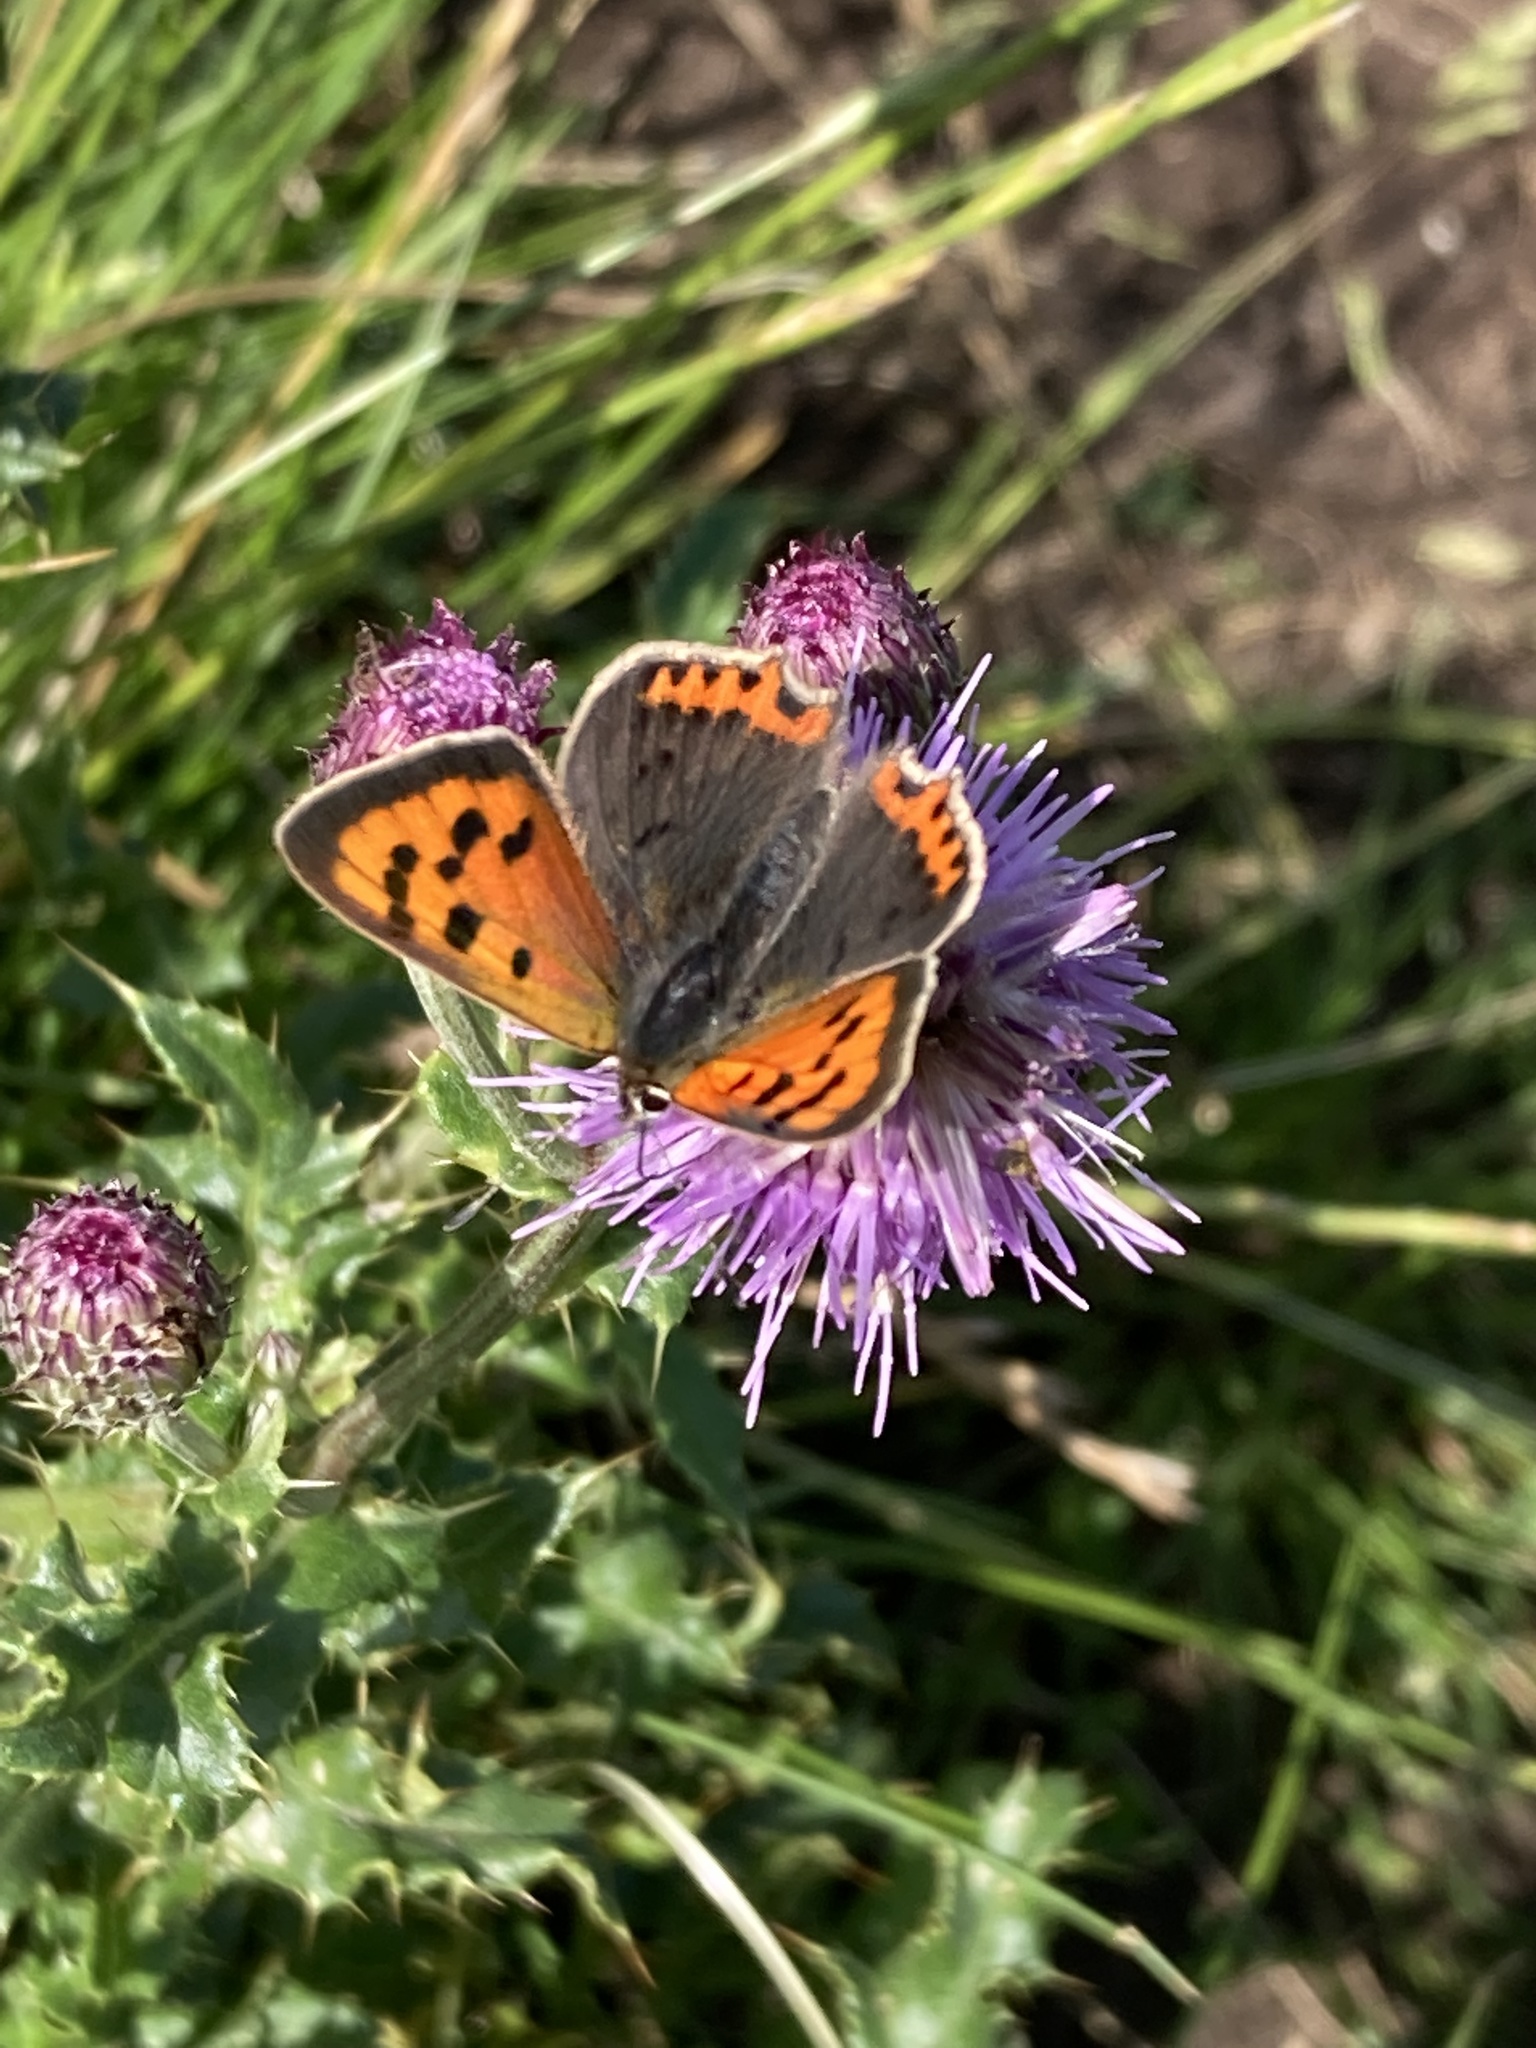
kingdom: Animalia
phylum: Arthropoda
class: Insecta
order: Lepidoptera
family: Lycaenidae
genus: Lycaena
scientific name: Lycaena phlaeas
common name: Small copper
